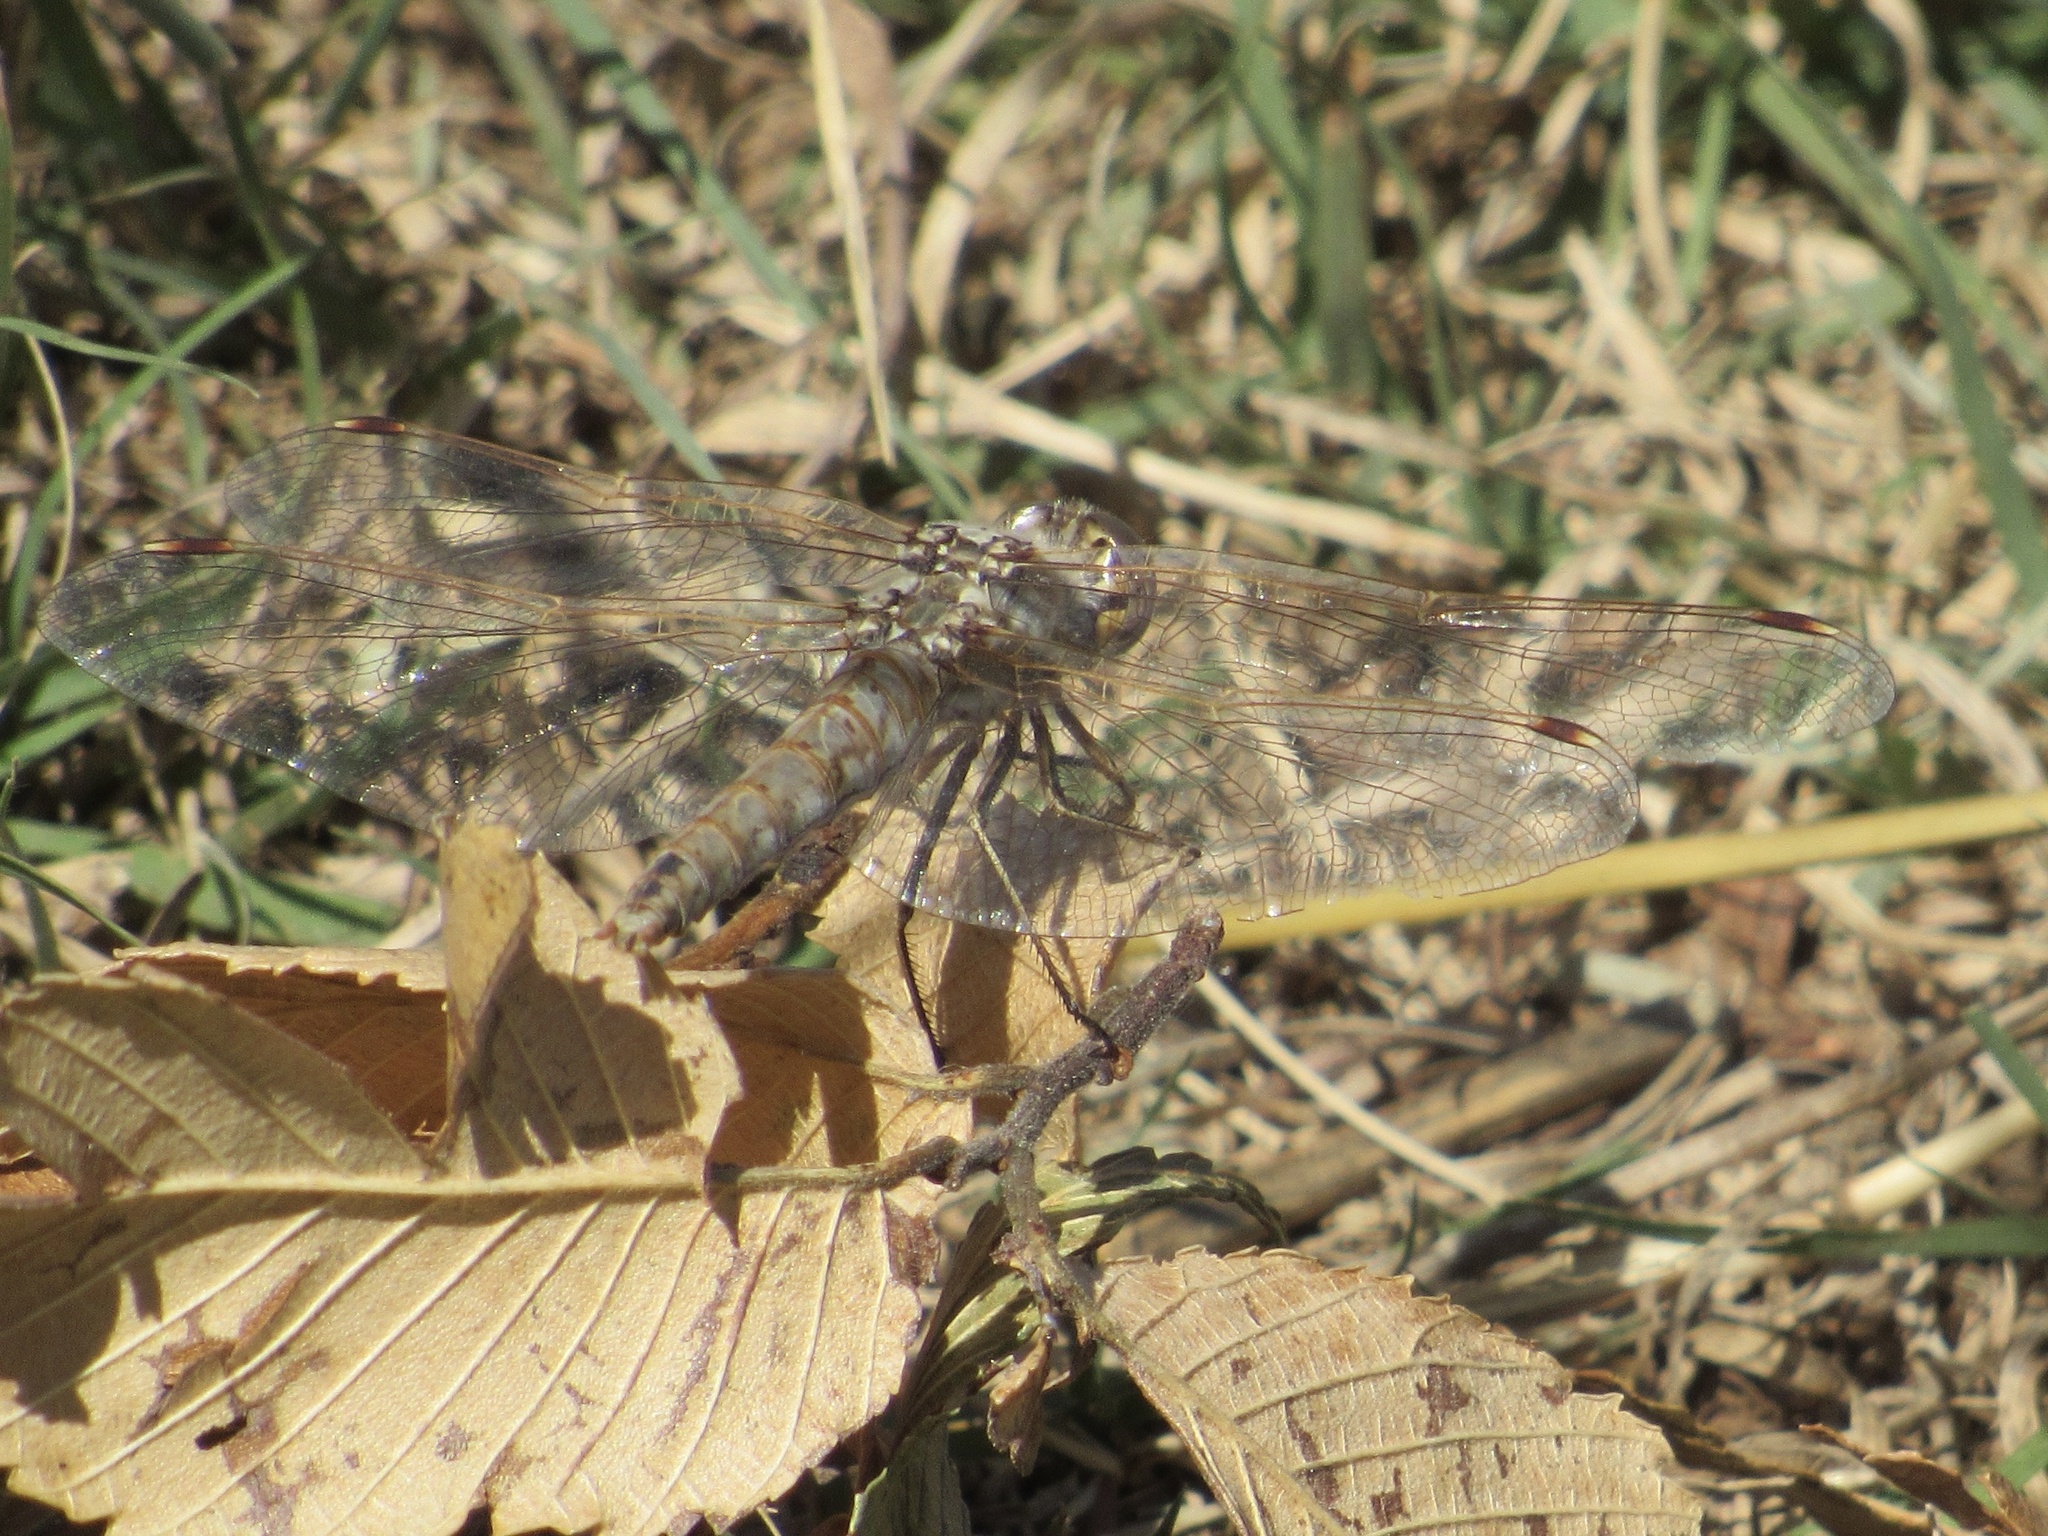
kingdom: Animalia
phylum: Arthropoda
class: Insecta
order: Odonata
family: Libellulidae
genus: Sympetrum
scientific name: Sympetrum corruptum
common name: Variegated meadowhawk
